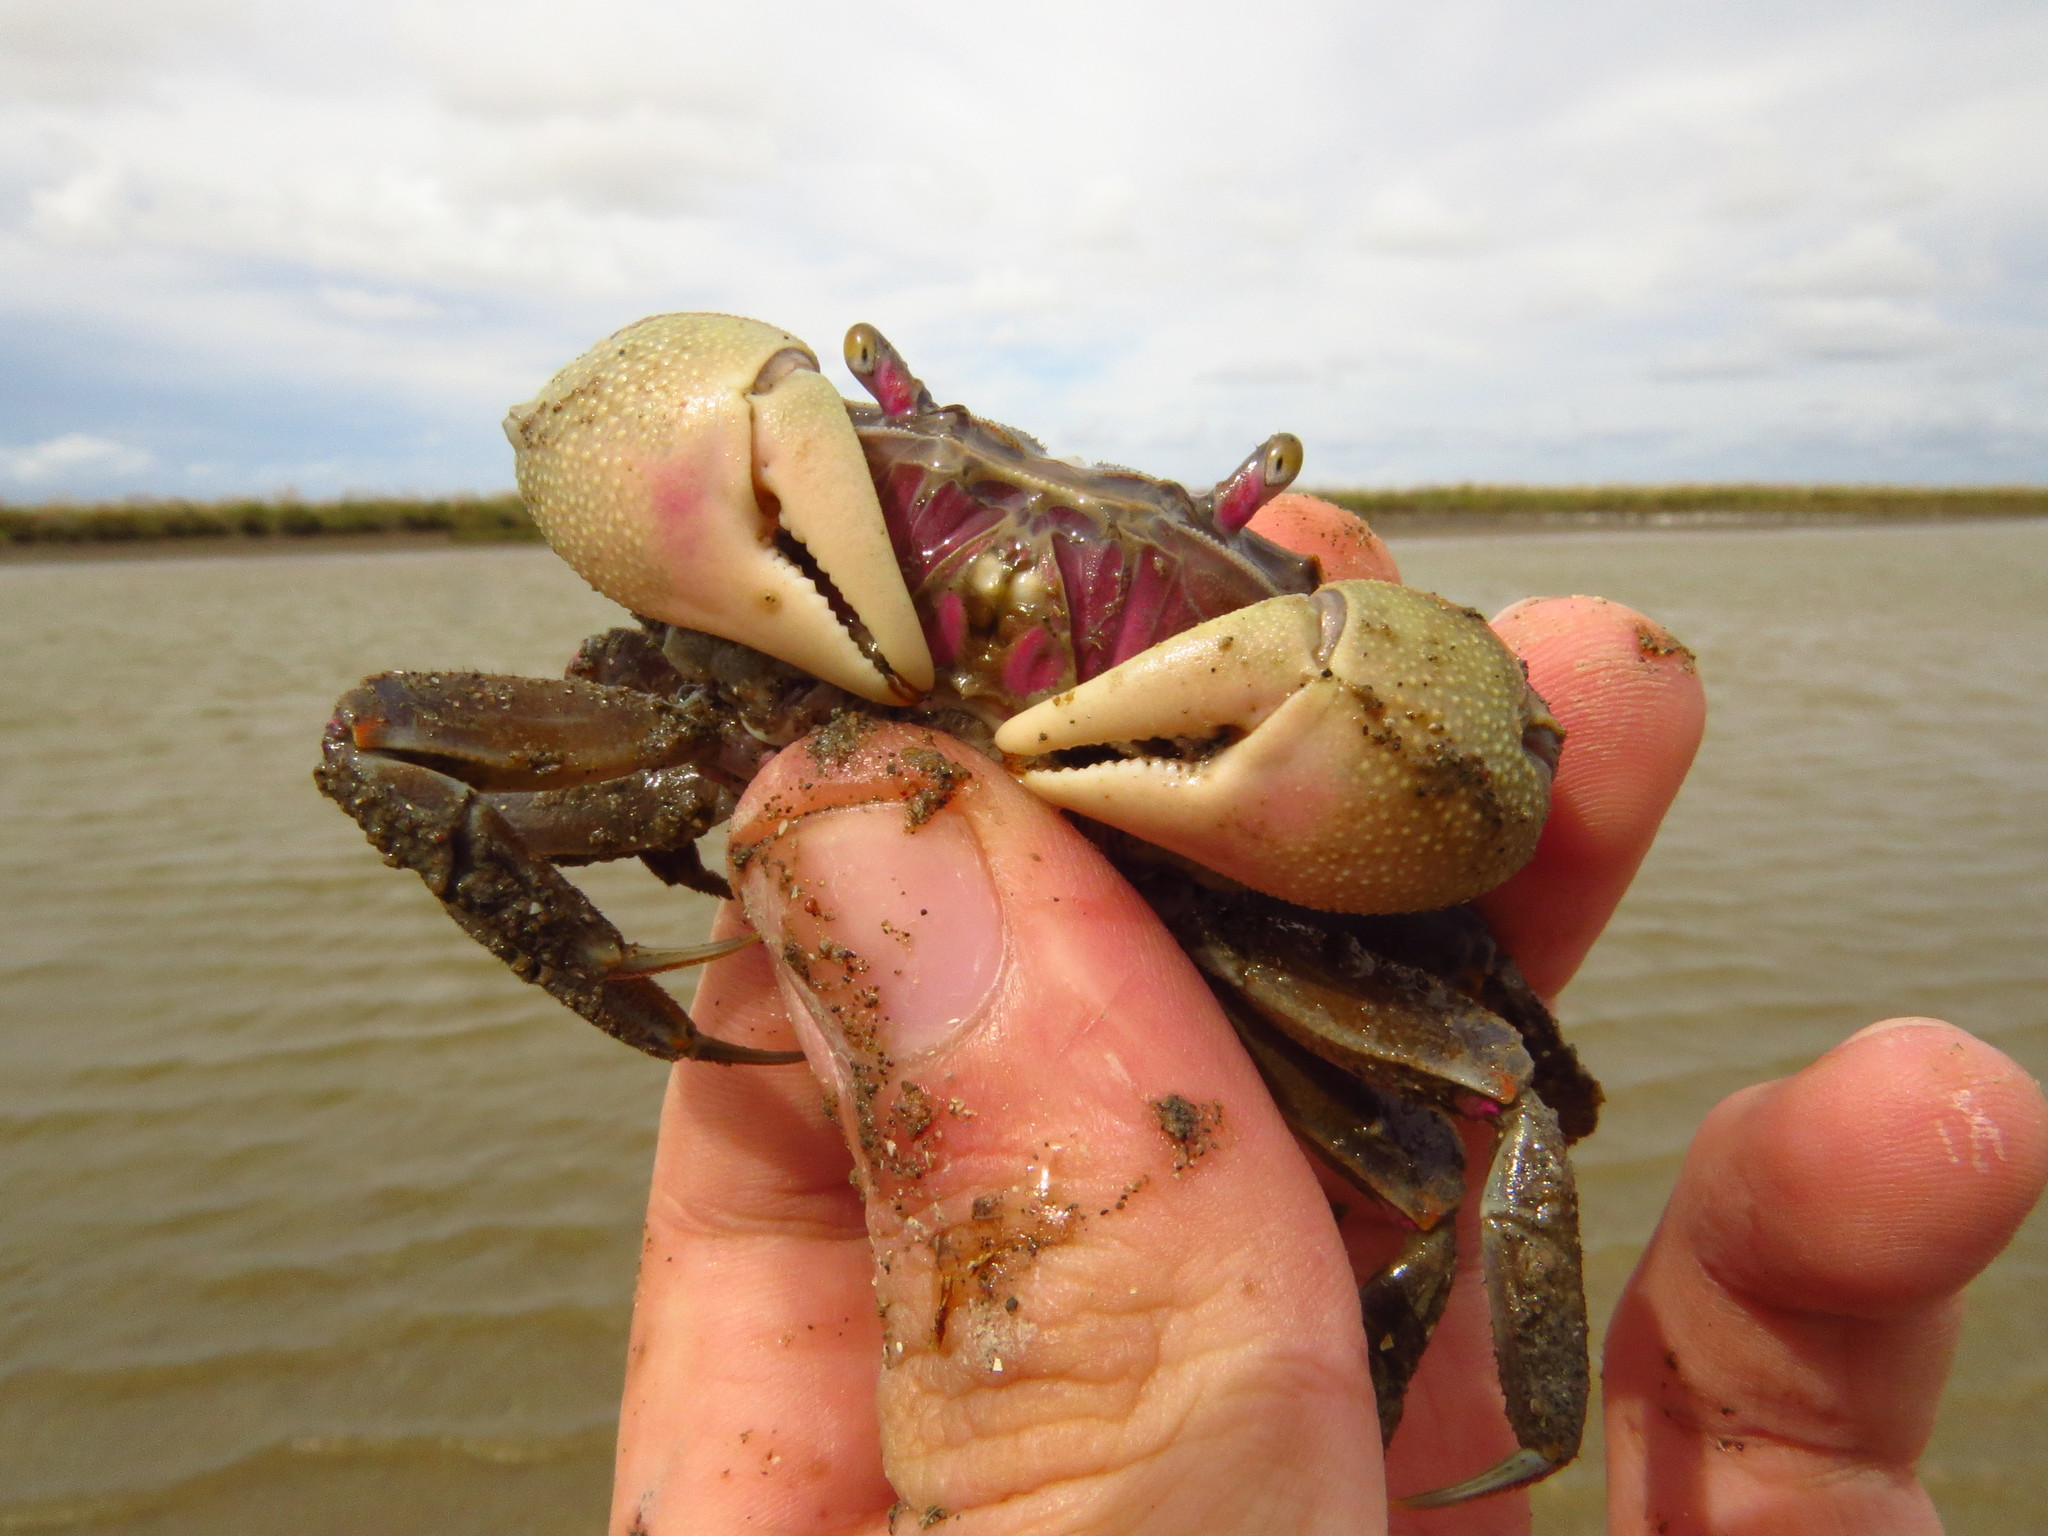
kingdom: Animalia
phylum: Arthropoda
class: Malacostraca
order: Decapoda
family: Varunidae
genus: Neohelice
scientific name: Neohelice granulata
